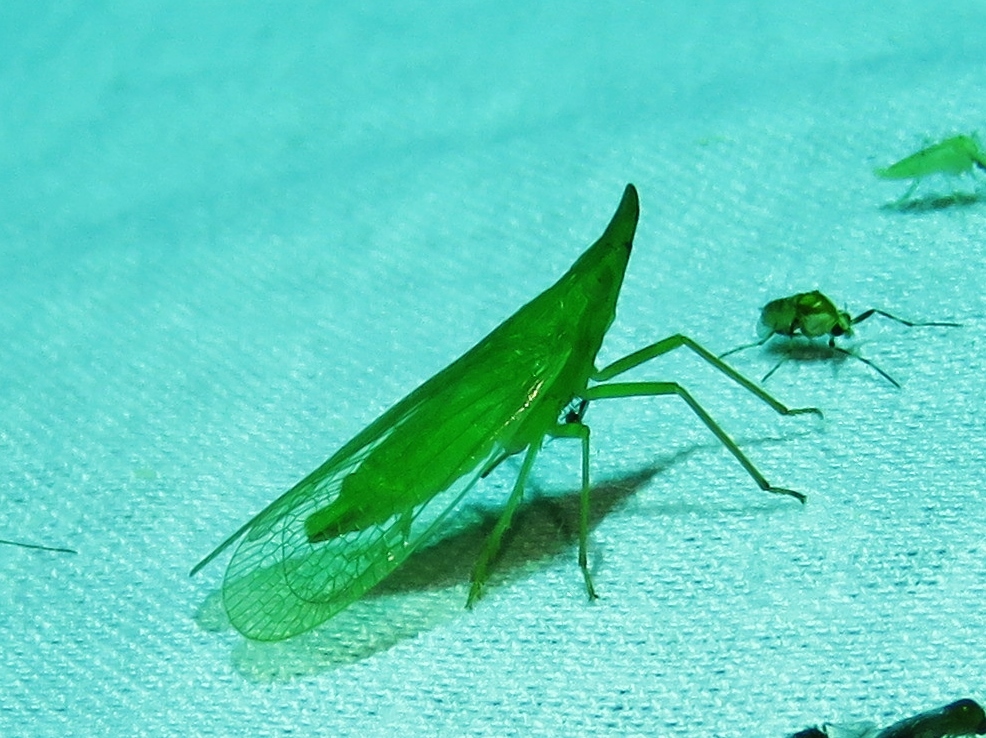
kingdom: Animalia
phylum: Arthropoda
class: Insecta
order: Hemiptera
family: Dictyopharidae
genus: Rhynchomitra
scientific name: Rhynchomitra microrhina
